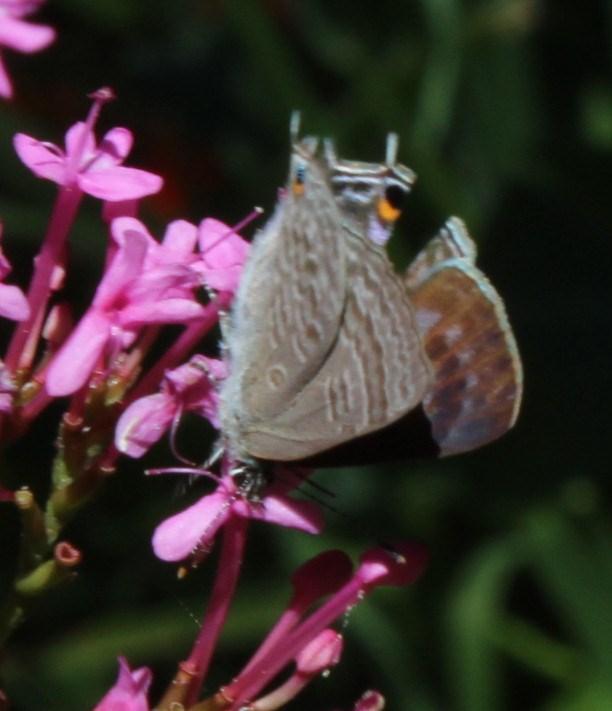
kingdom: Animalia
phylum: Arthropoda
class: Insecta
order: Lepidoptera
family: Lycaenidae
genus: Anthene
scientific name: Anthene definita
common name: Common ciliate blue
